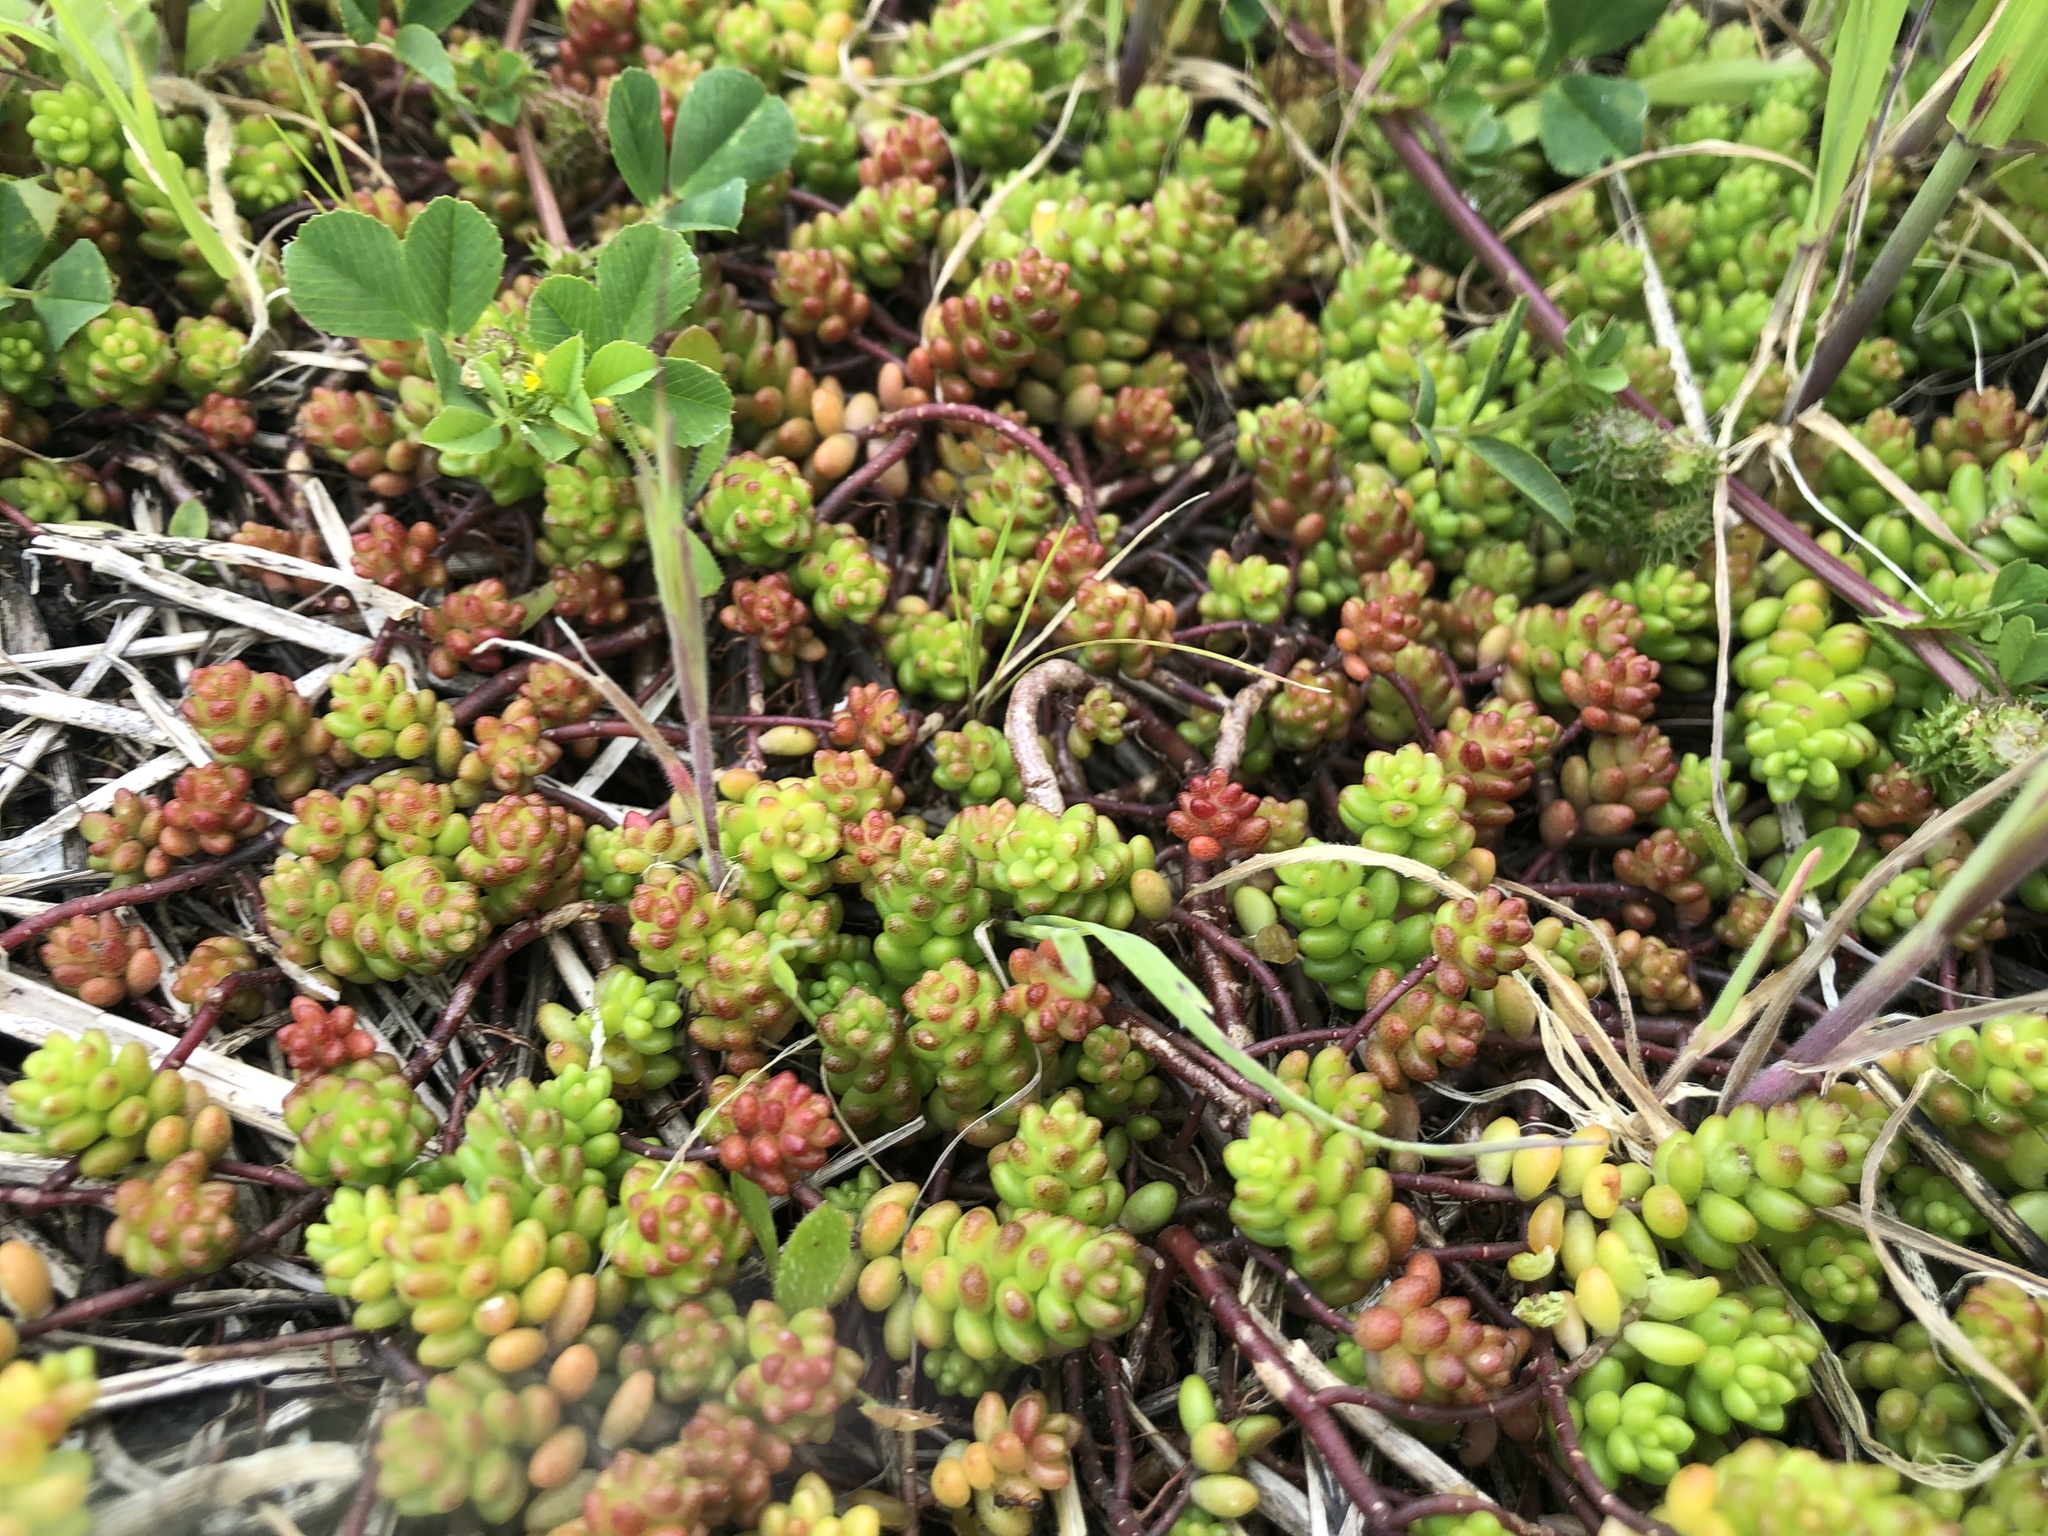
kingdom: Plantae
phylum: Tracheophyta
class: Magnoliopsida
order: Saxifragales
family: Crassulaceae
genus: Sedum
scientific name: Sedum album
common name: White stonecrop
